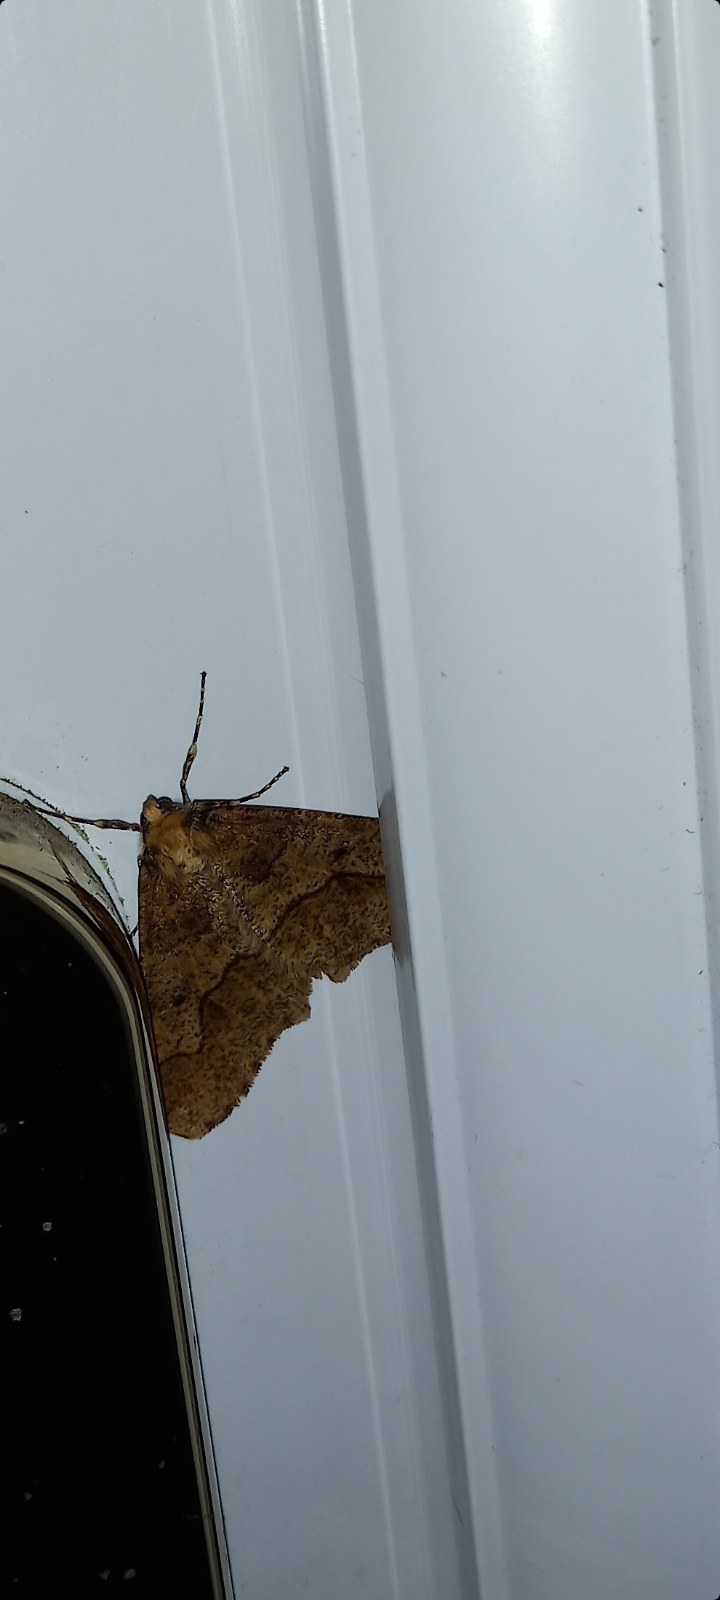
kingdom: Animalia
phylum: Arthropoda
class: Insecta
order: Lepidoptera
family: Geometridae
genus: Erannis
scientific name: Erannis defoliaria
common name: Mottled umber
